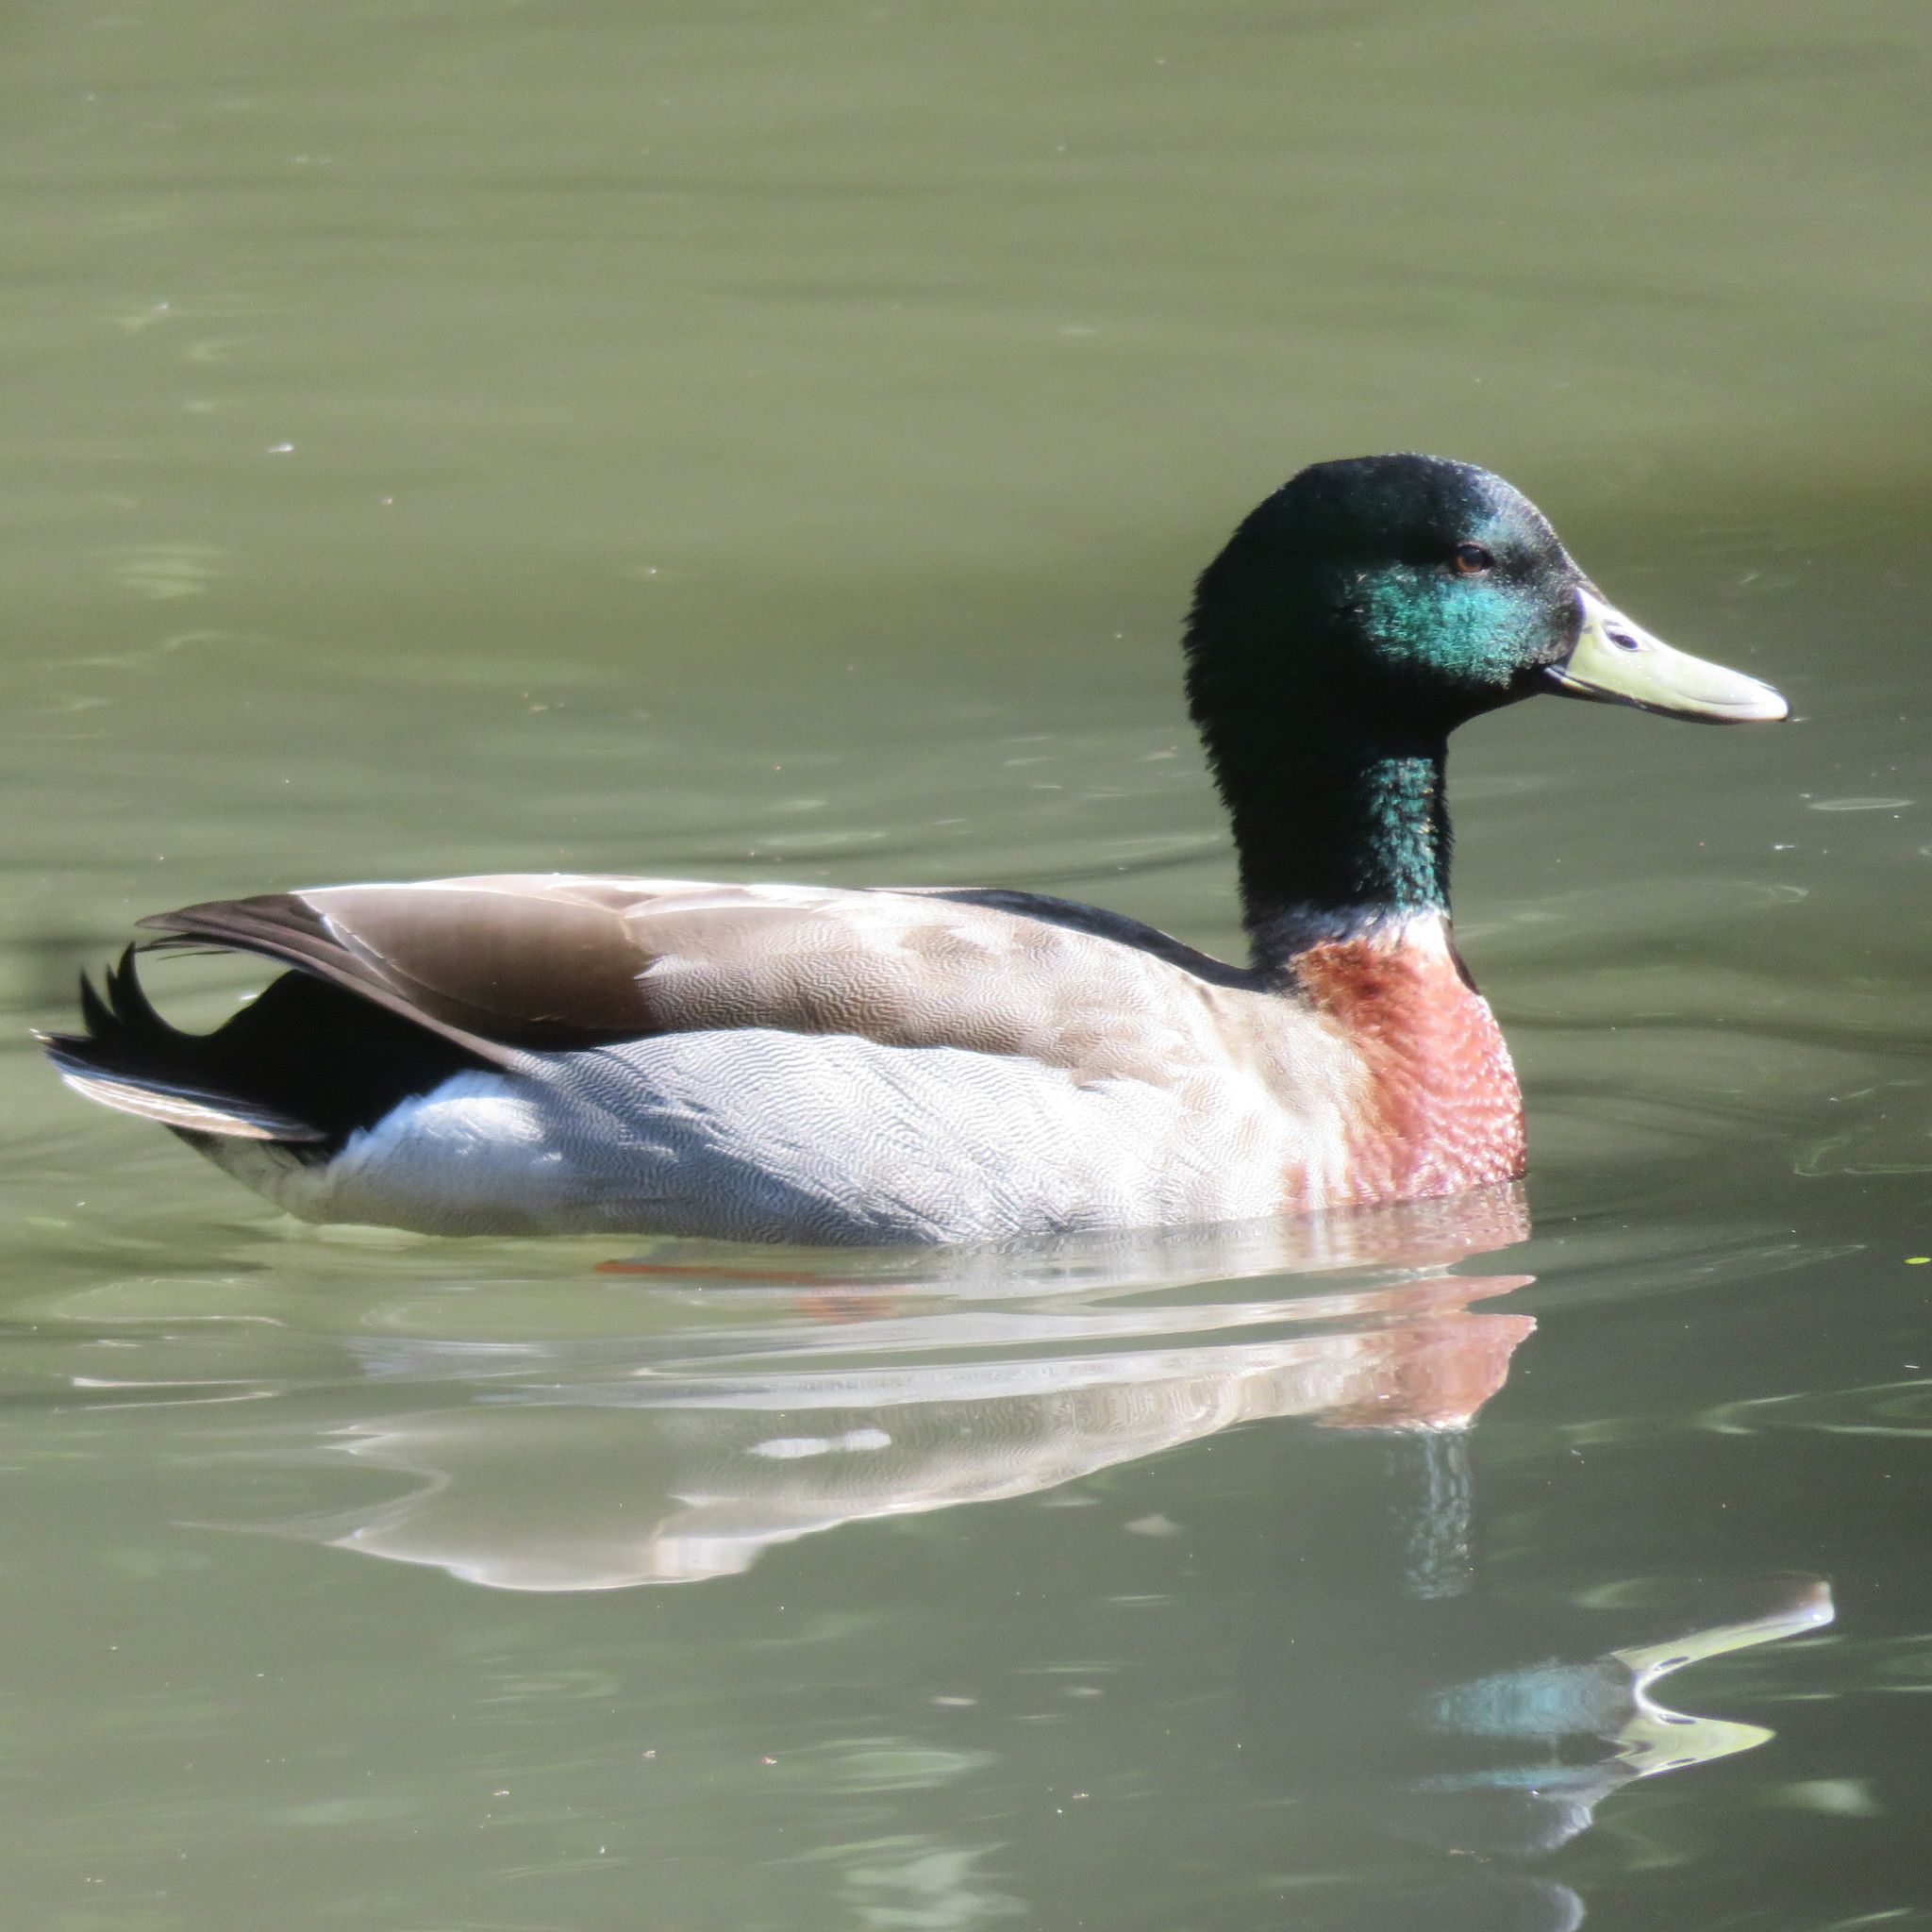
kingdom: Animalia
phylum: Chordata
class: Aves
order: Anseriformes
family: Anatidae
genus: Anas
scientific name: Anas platyrhynchos
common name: Mallard
